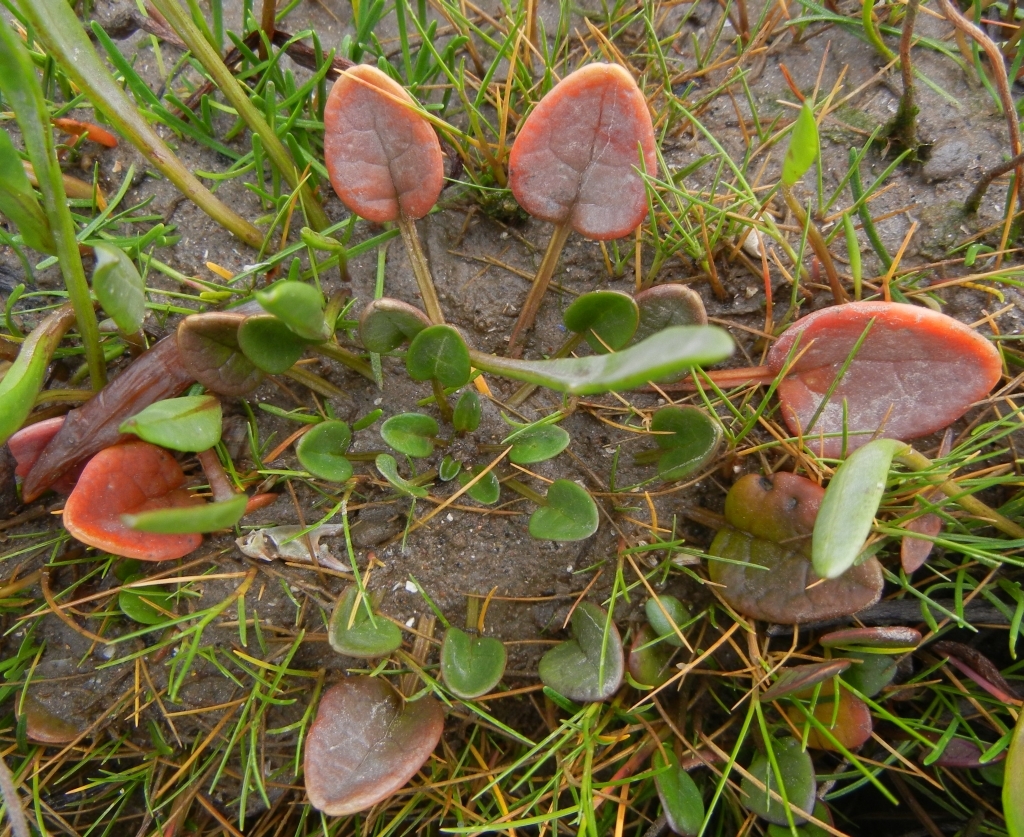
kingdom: Plantae
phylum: Tracheophyta
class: Magnoliopsida
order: Brassicales
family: Brassicaceae
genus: Cochlearia
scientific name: Cochlearia officinalis
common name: Scurvy-grass
